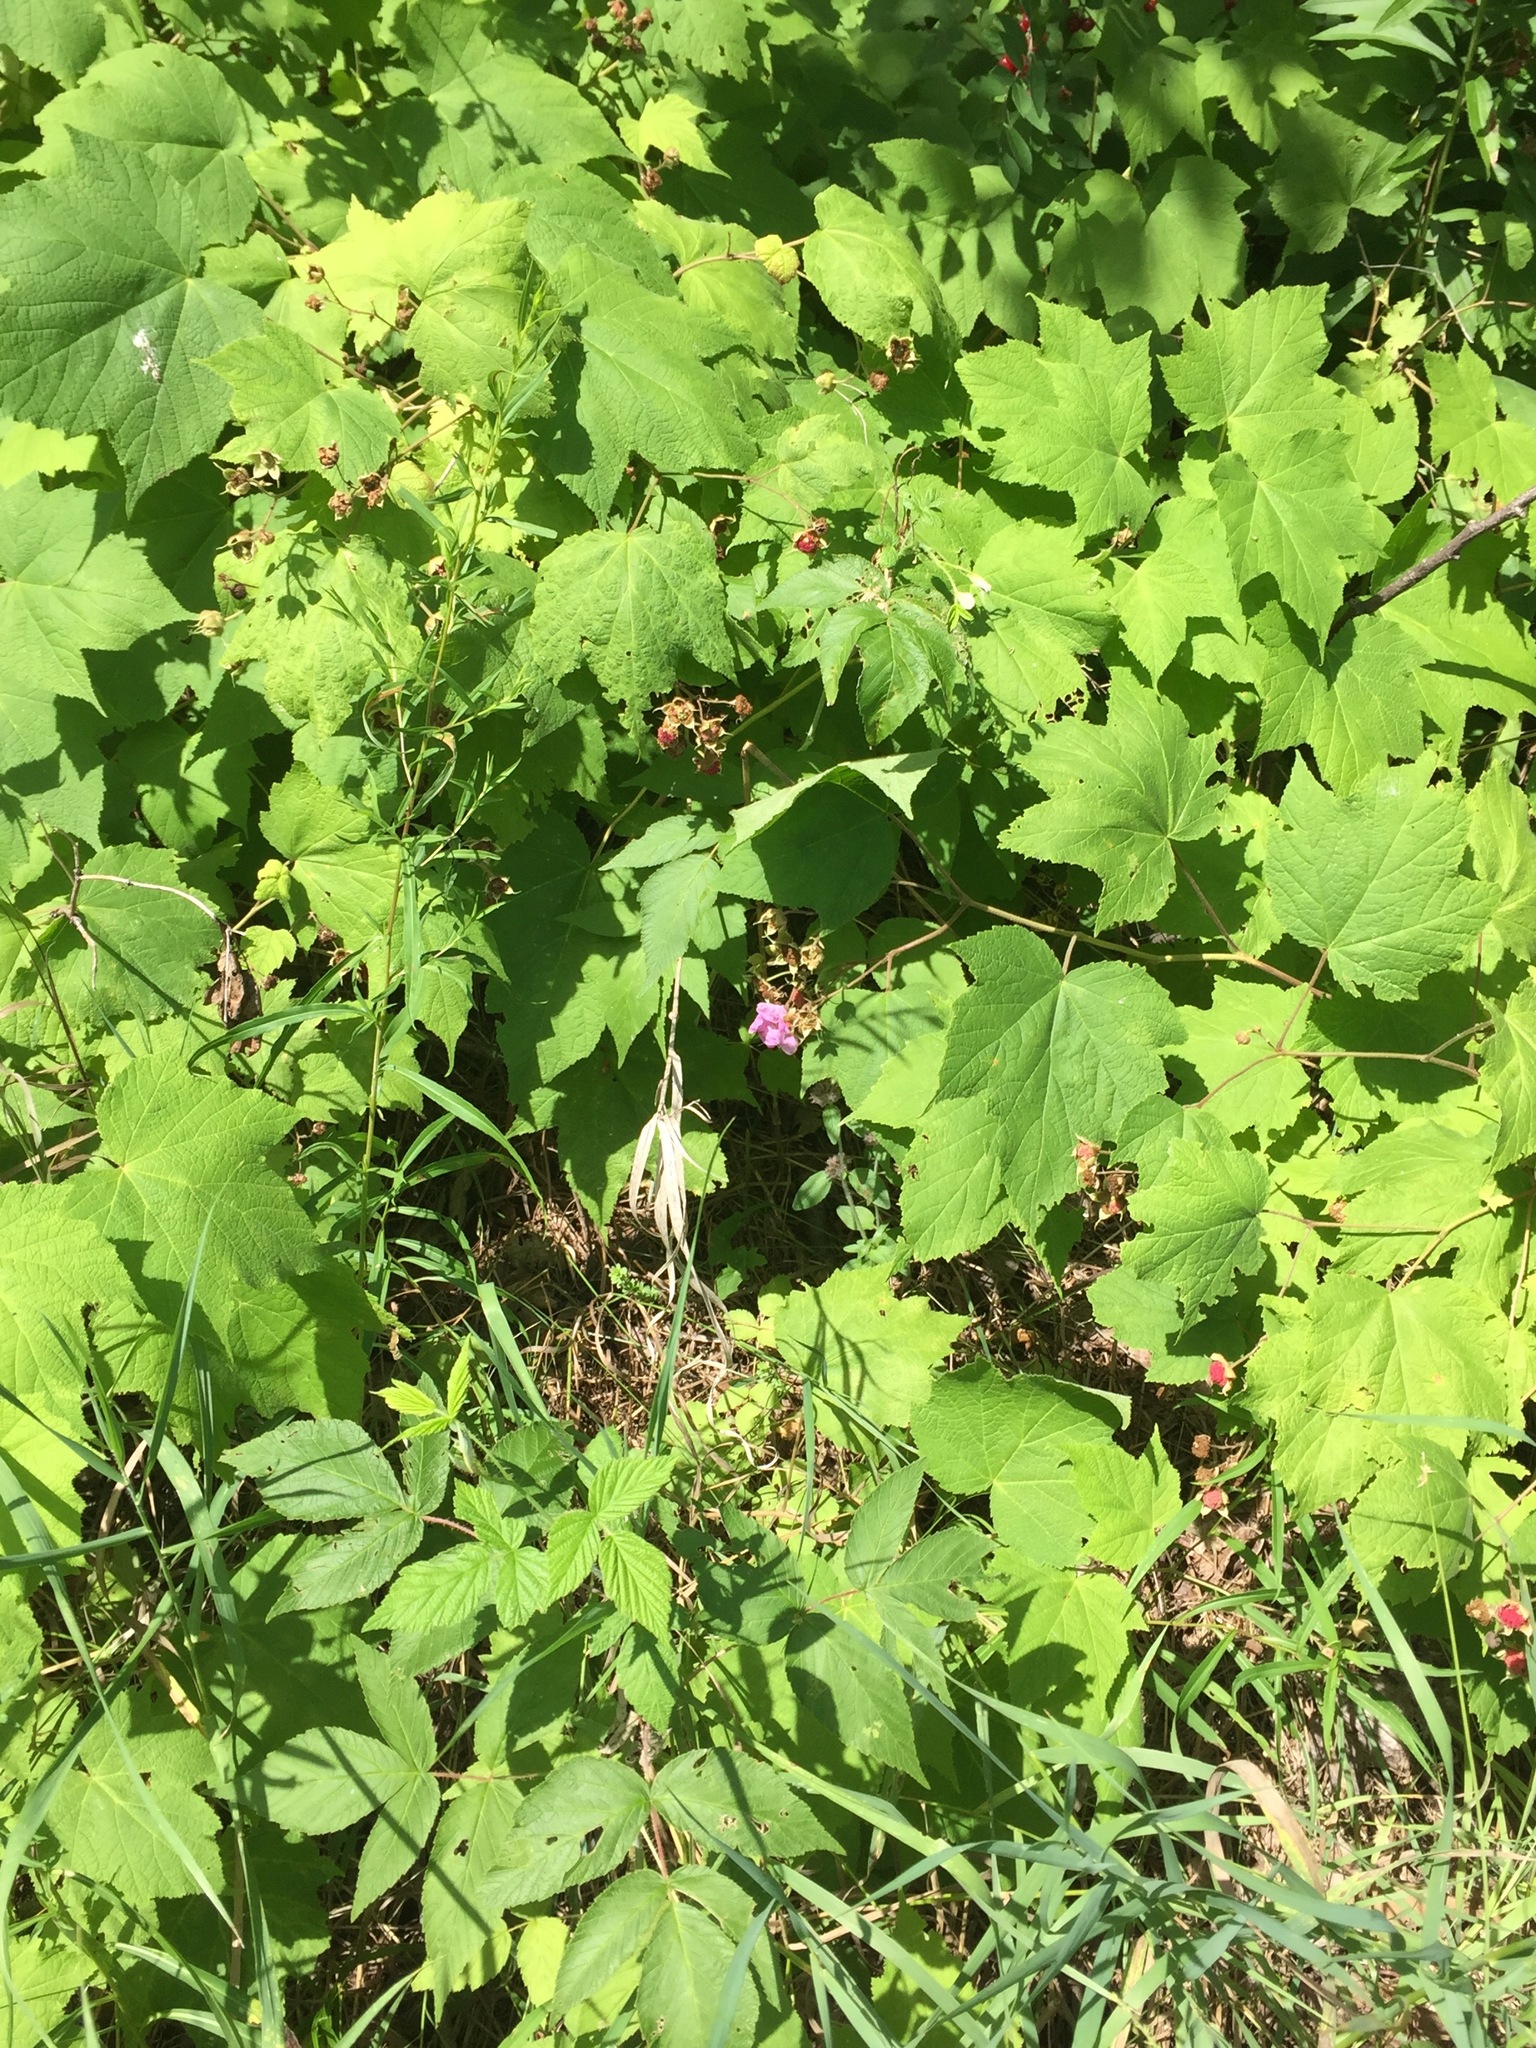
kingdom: Plantae
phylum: Tracheophyta
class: Magnoliopsida
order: Rosales
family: Rosaceae
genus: Rubus
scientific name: Rubus odoratus
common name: Purple-flowered raspberry
